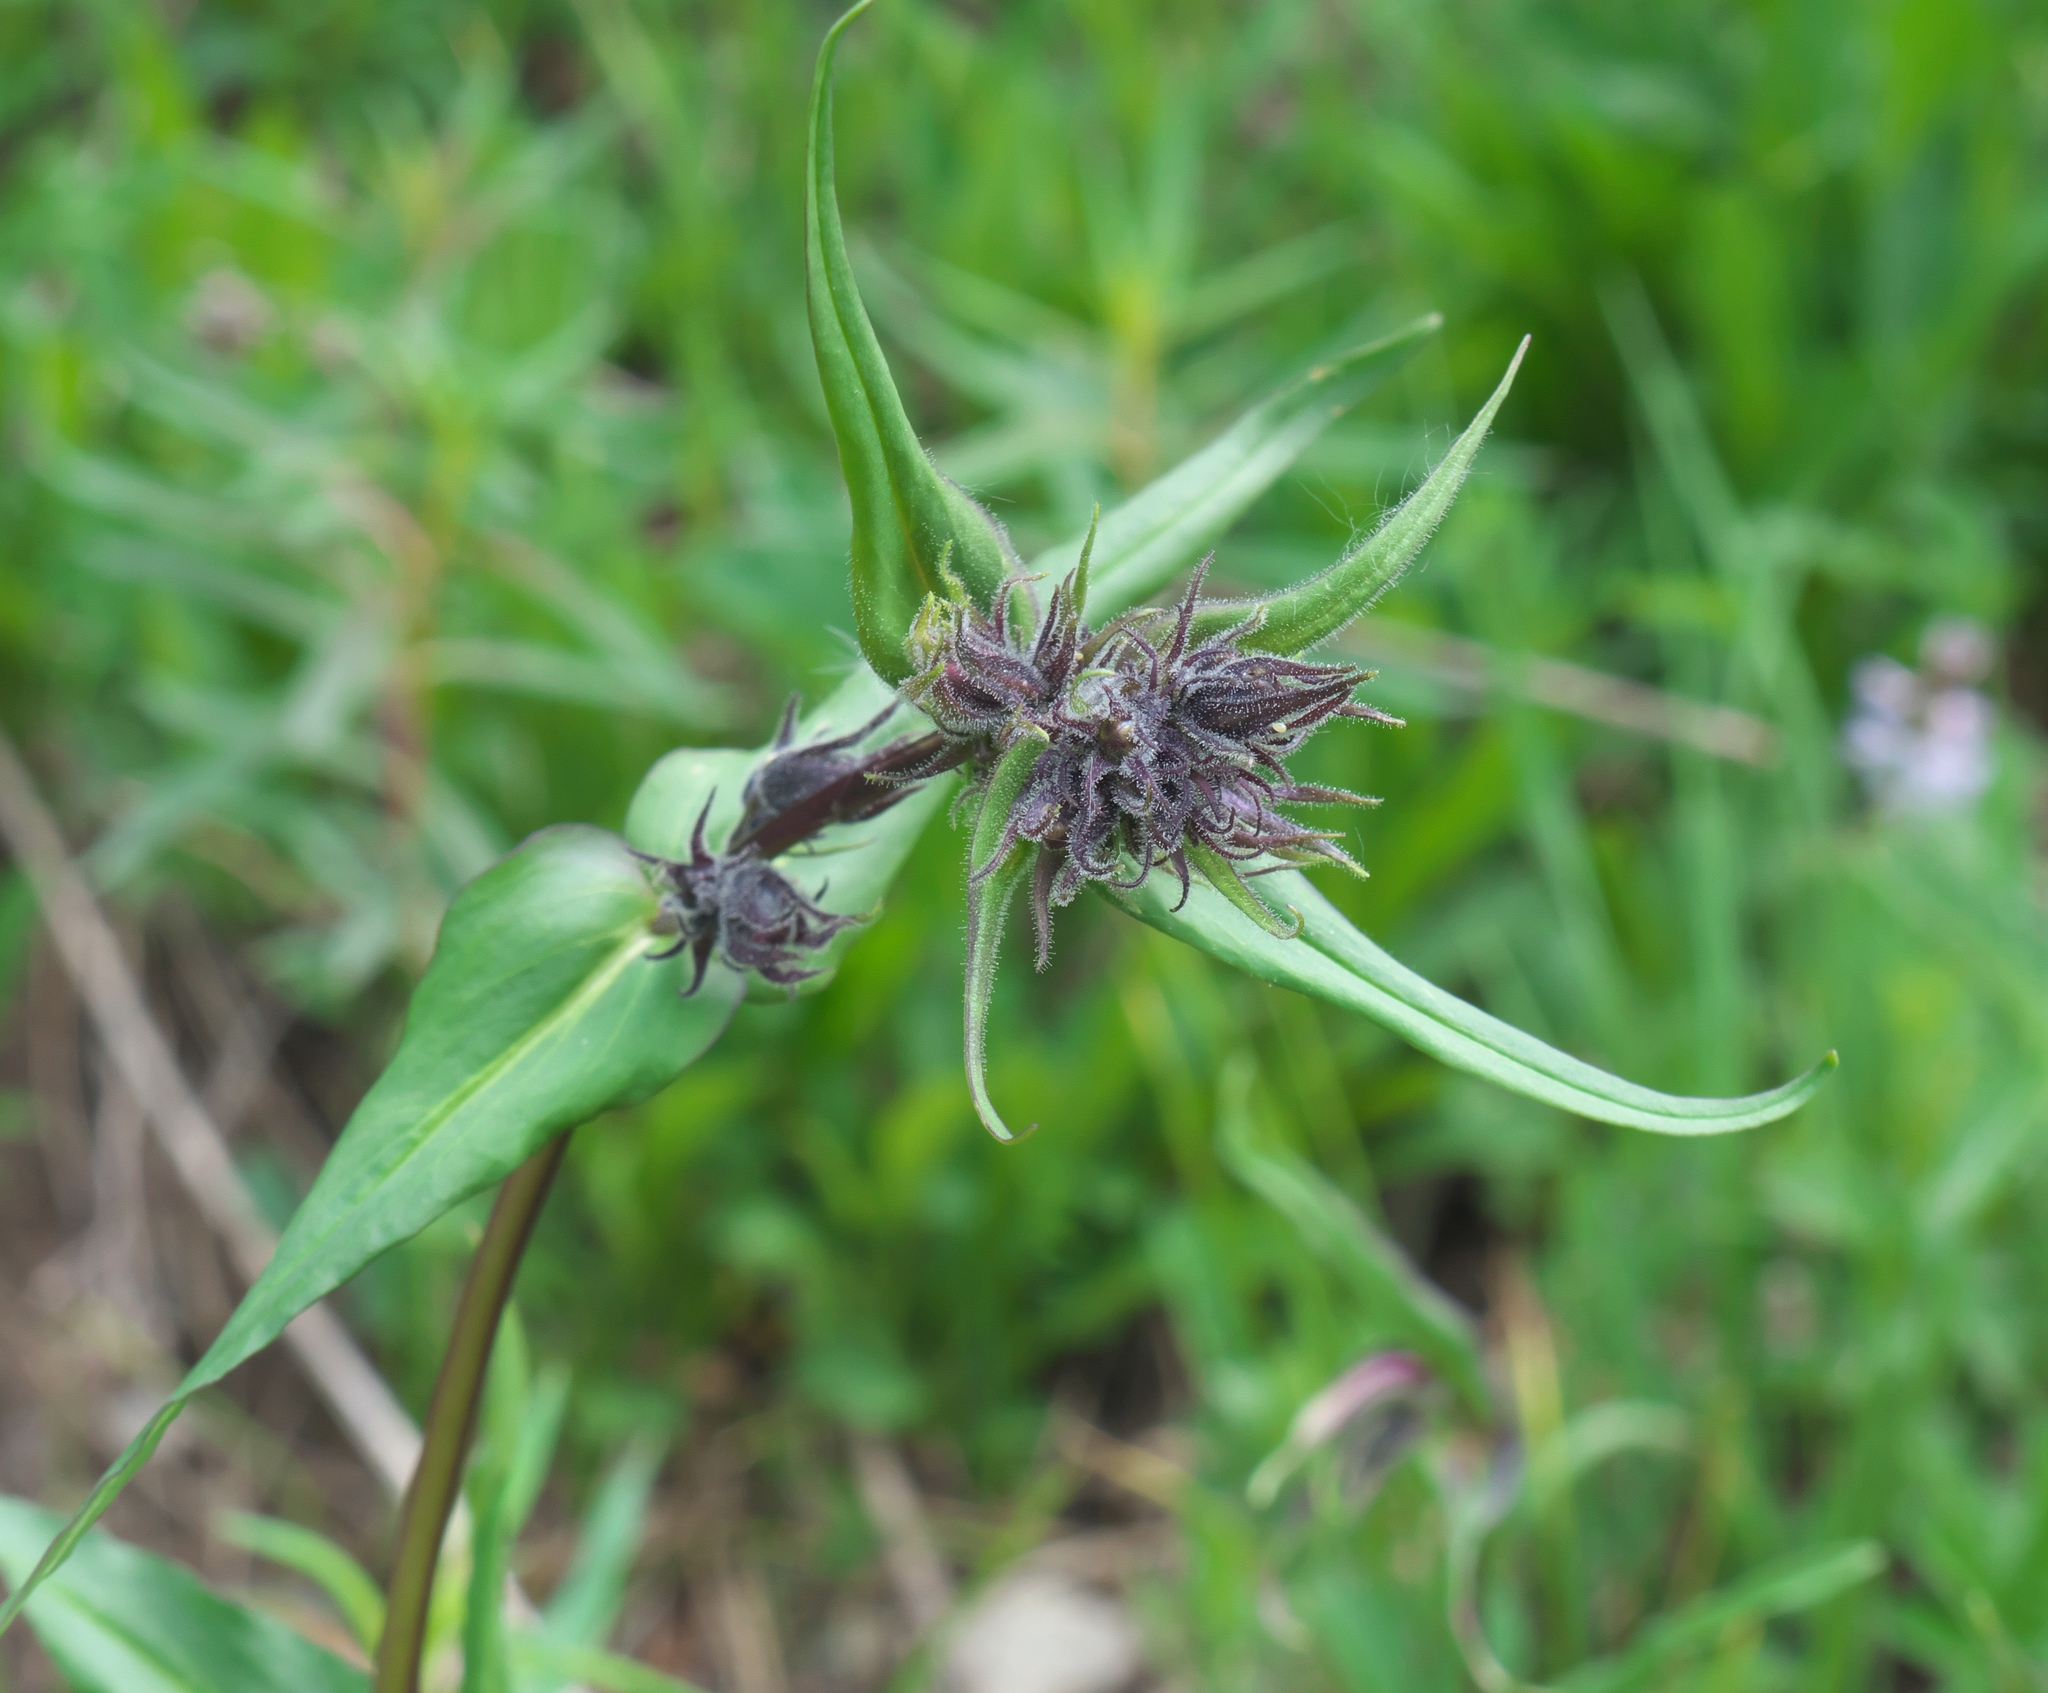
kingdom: Plantae
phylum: Tracheophyta
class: Magnoliopsida
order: Lamiales
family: Plantaginaceae
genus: Penstemon
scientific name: Penstemon whippleanus
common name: Whipple's penstemon
